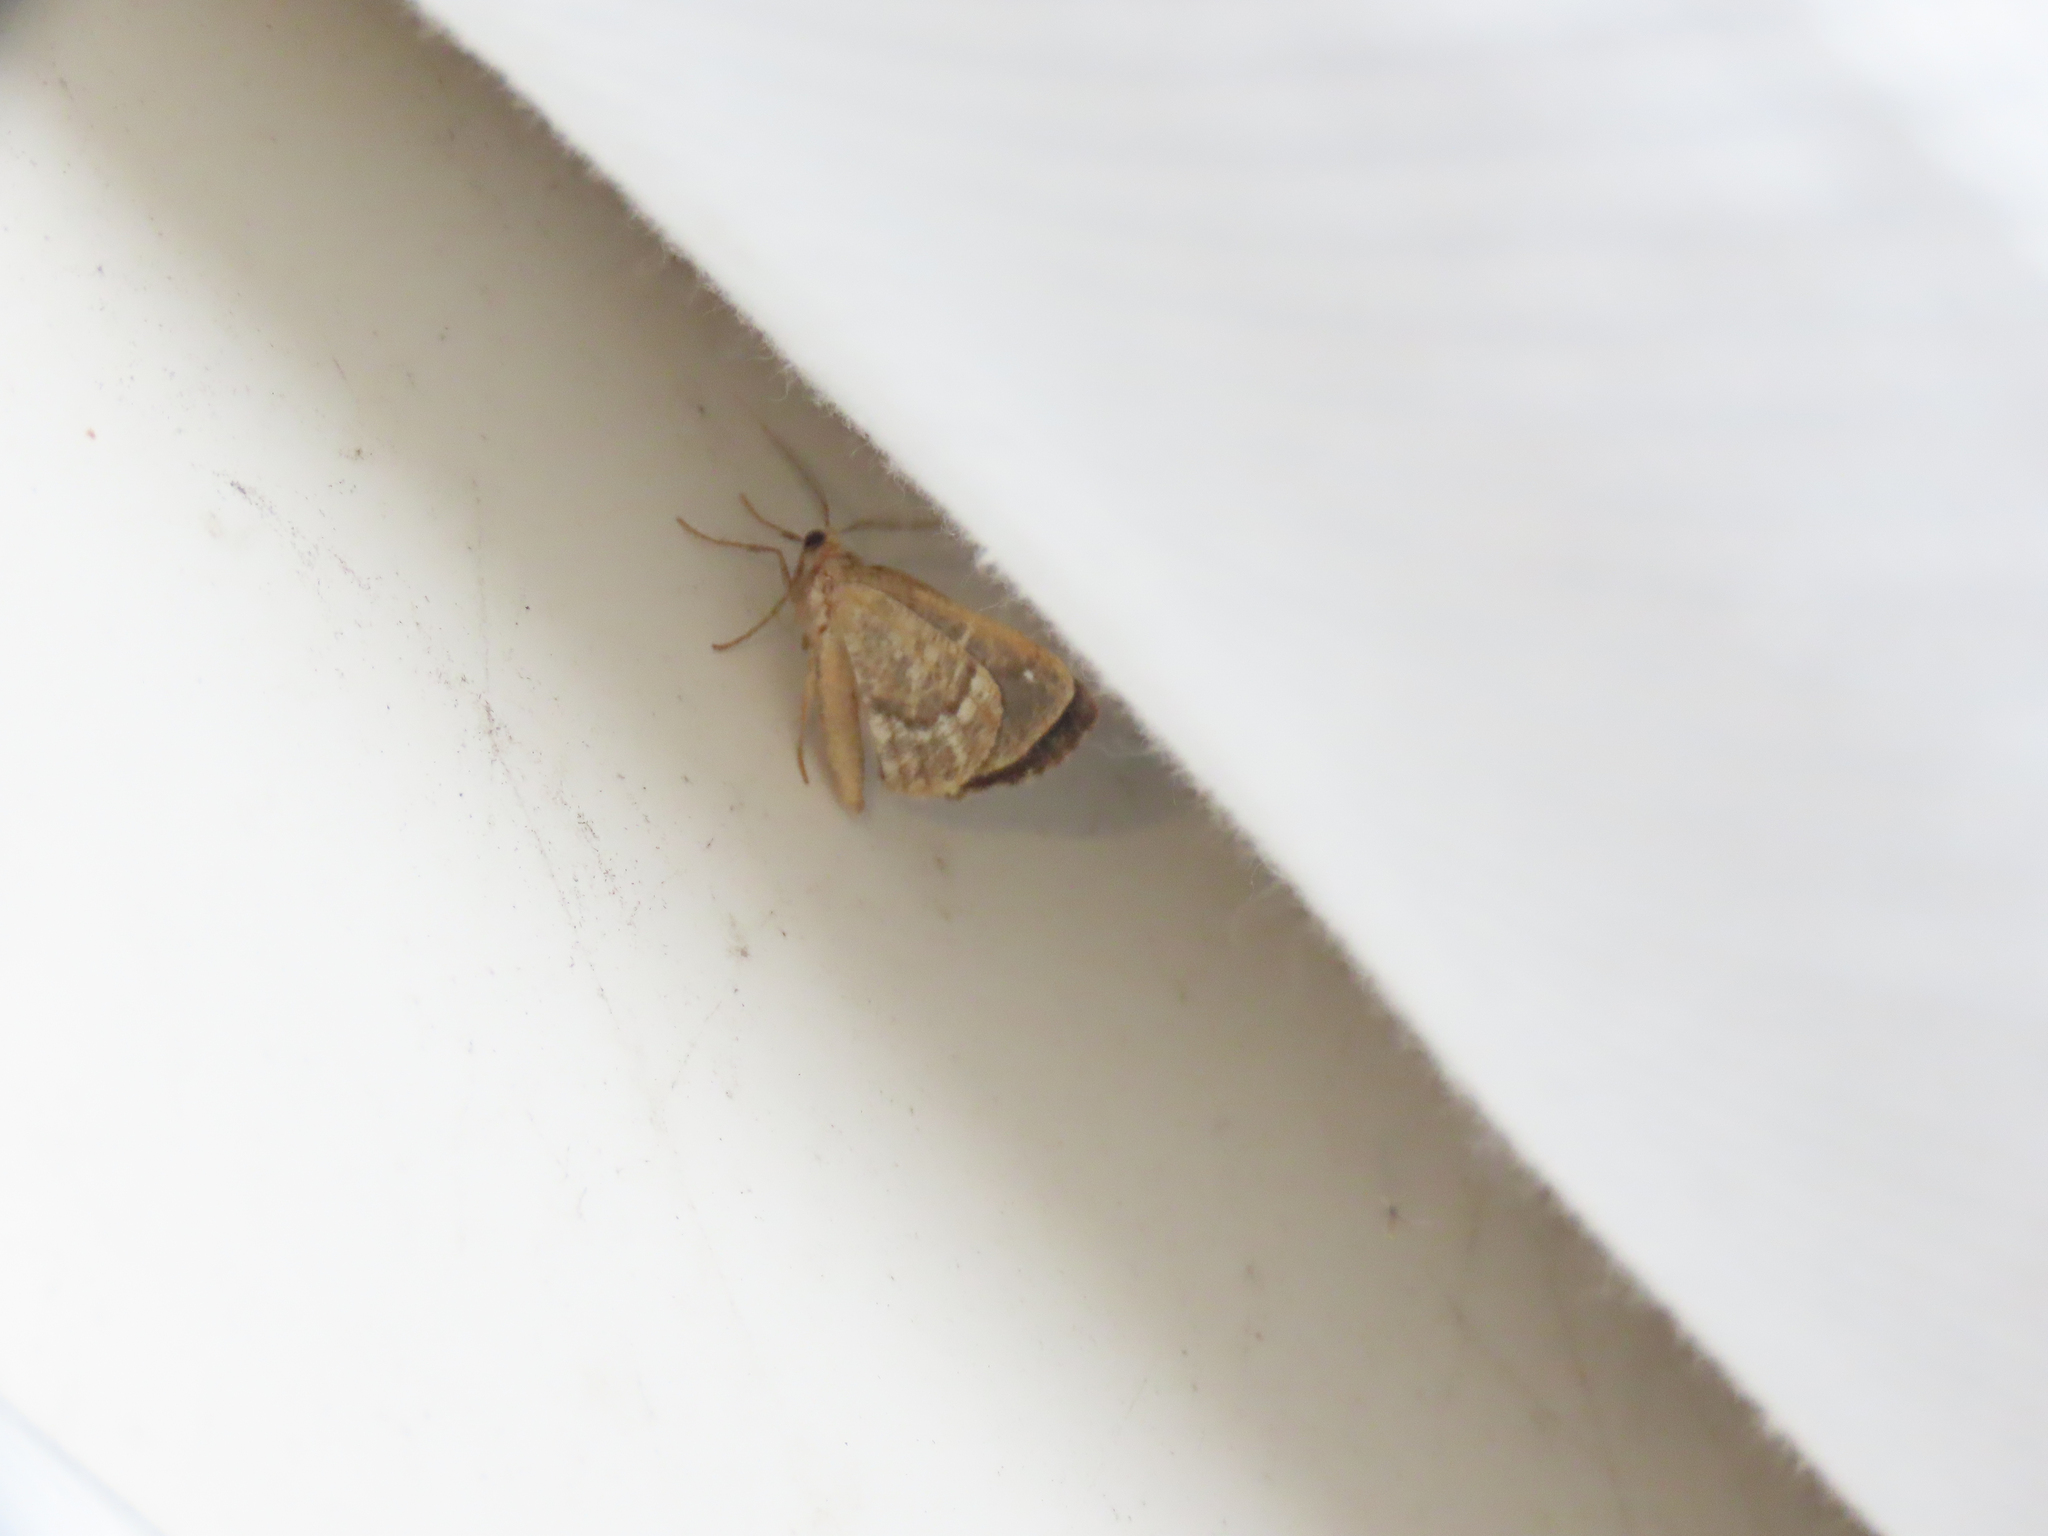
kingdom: Animalia
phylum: Arthropoda
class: Insecta
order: Lepidoptera
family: Geometridae
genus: Caripeta
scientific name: Caripeta divisata
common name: Gray spruce looper
